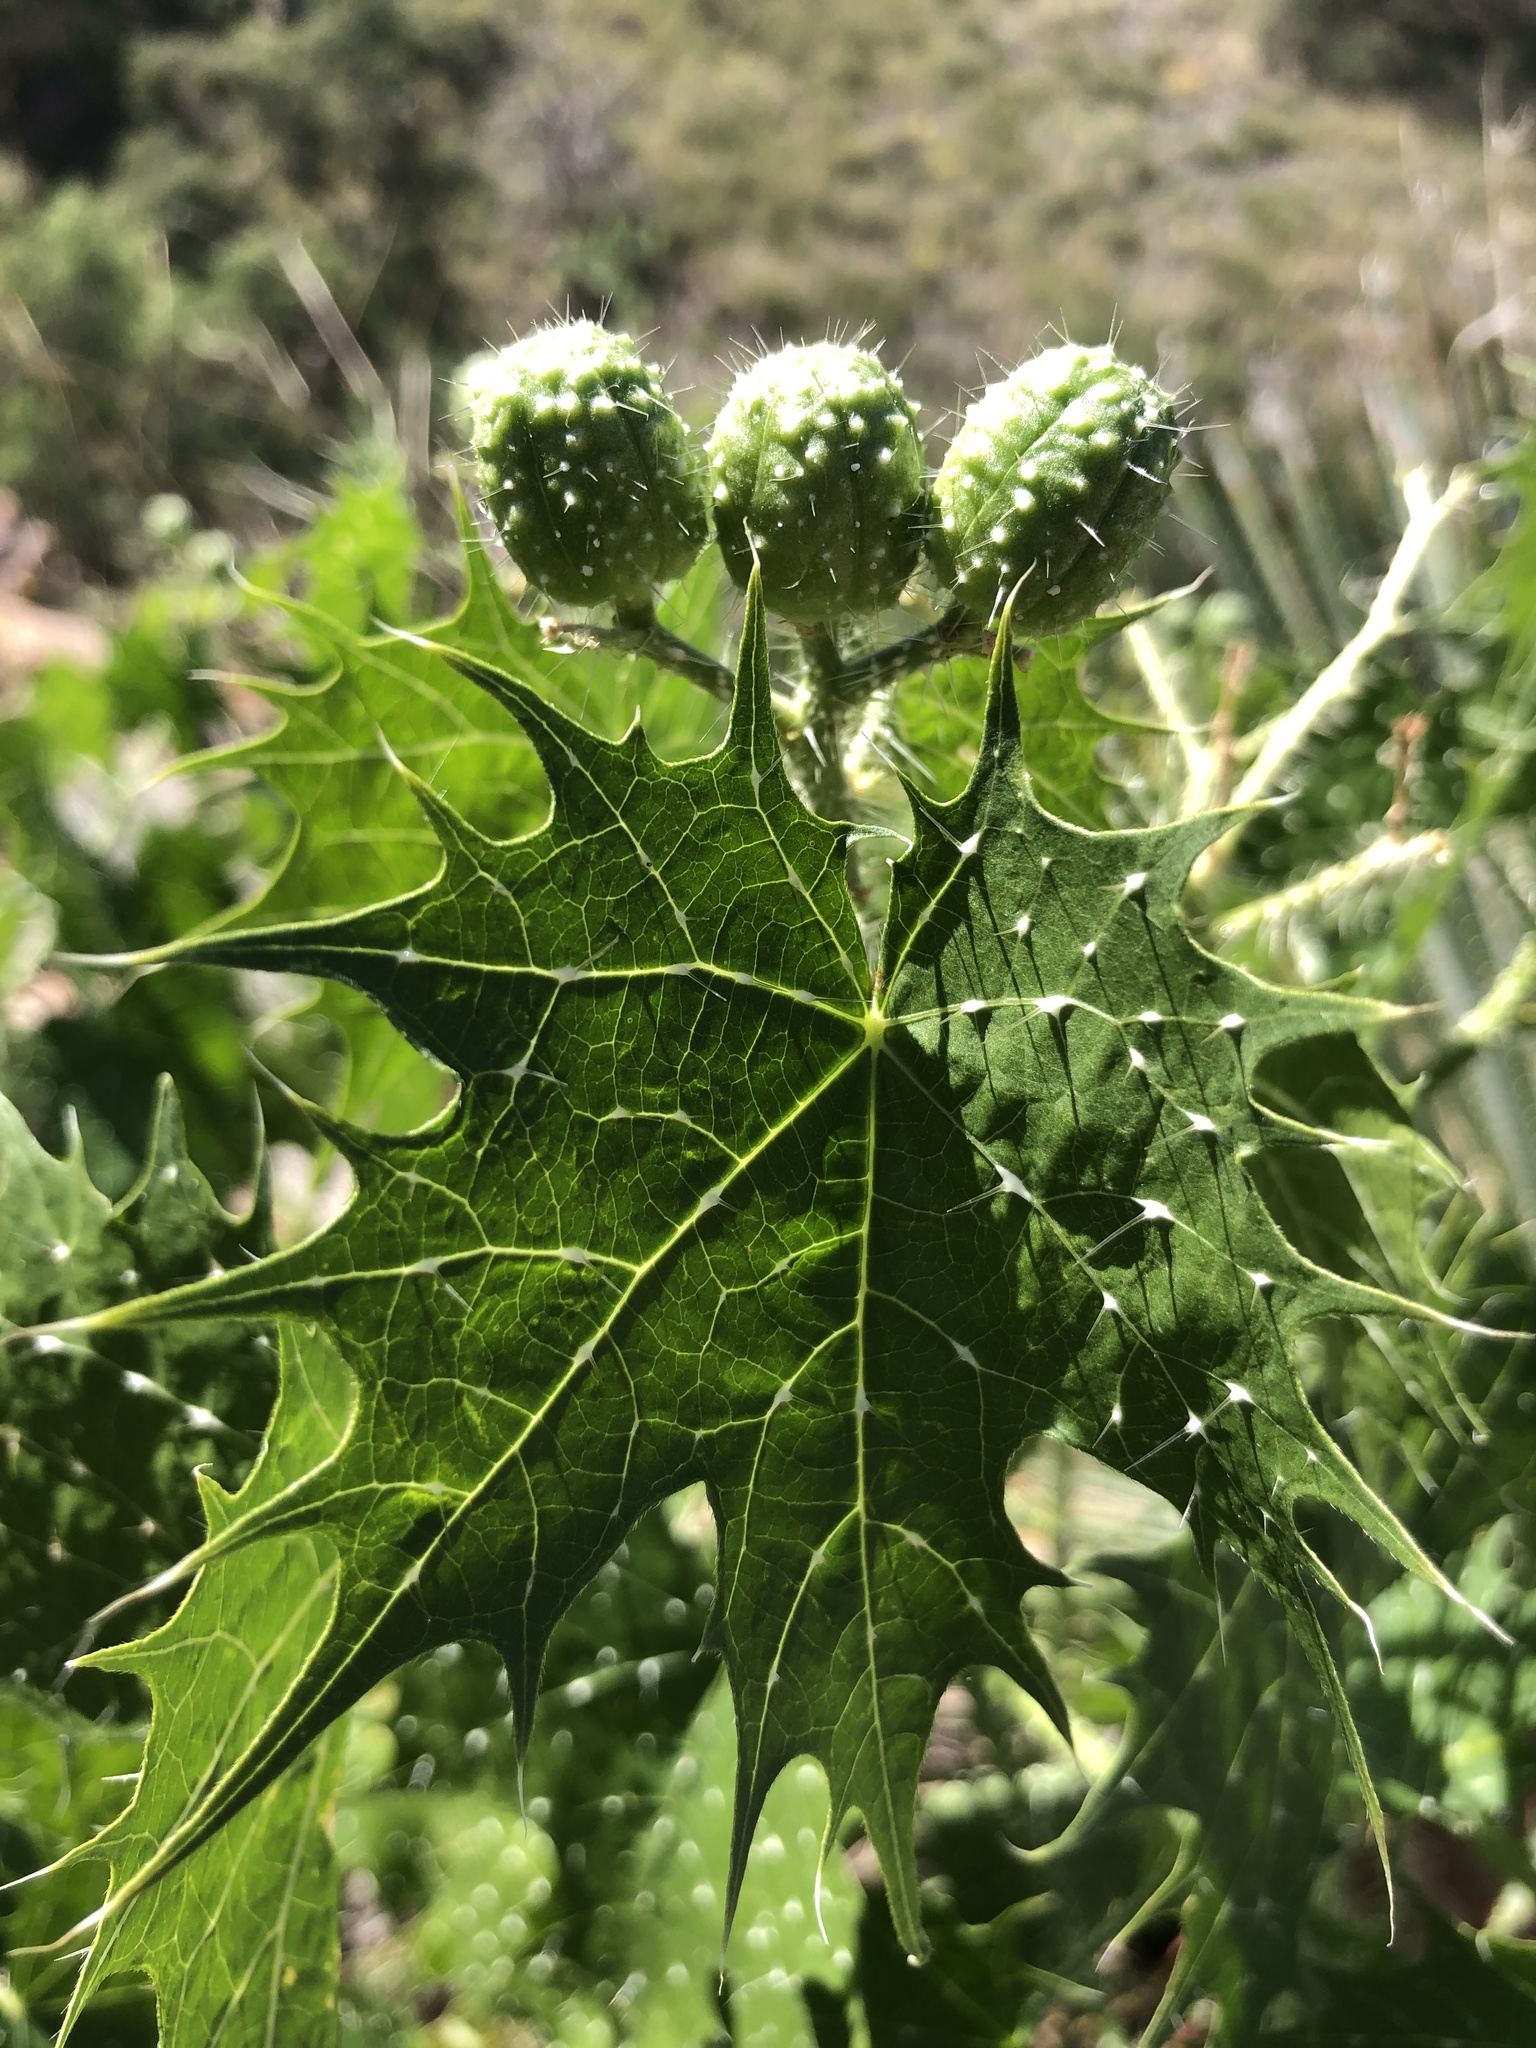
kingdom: Plantae
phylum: Tracheophyta
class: Magnoliopsida
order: Malpighiales
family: Euphorbiaceae
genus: Cnidoscolus
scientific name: Cnidoscolus angustidens
